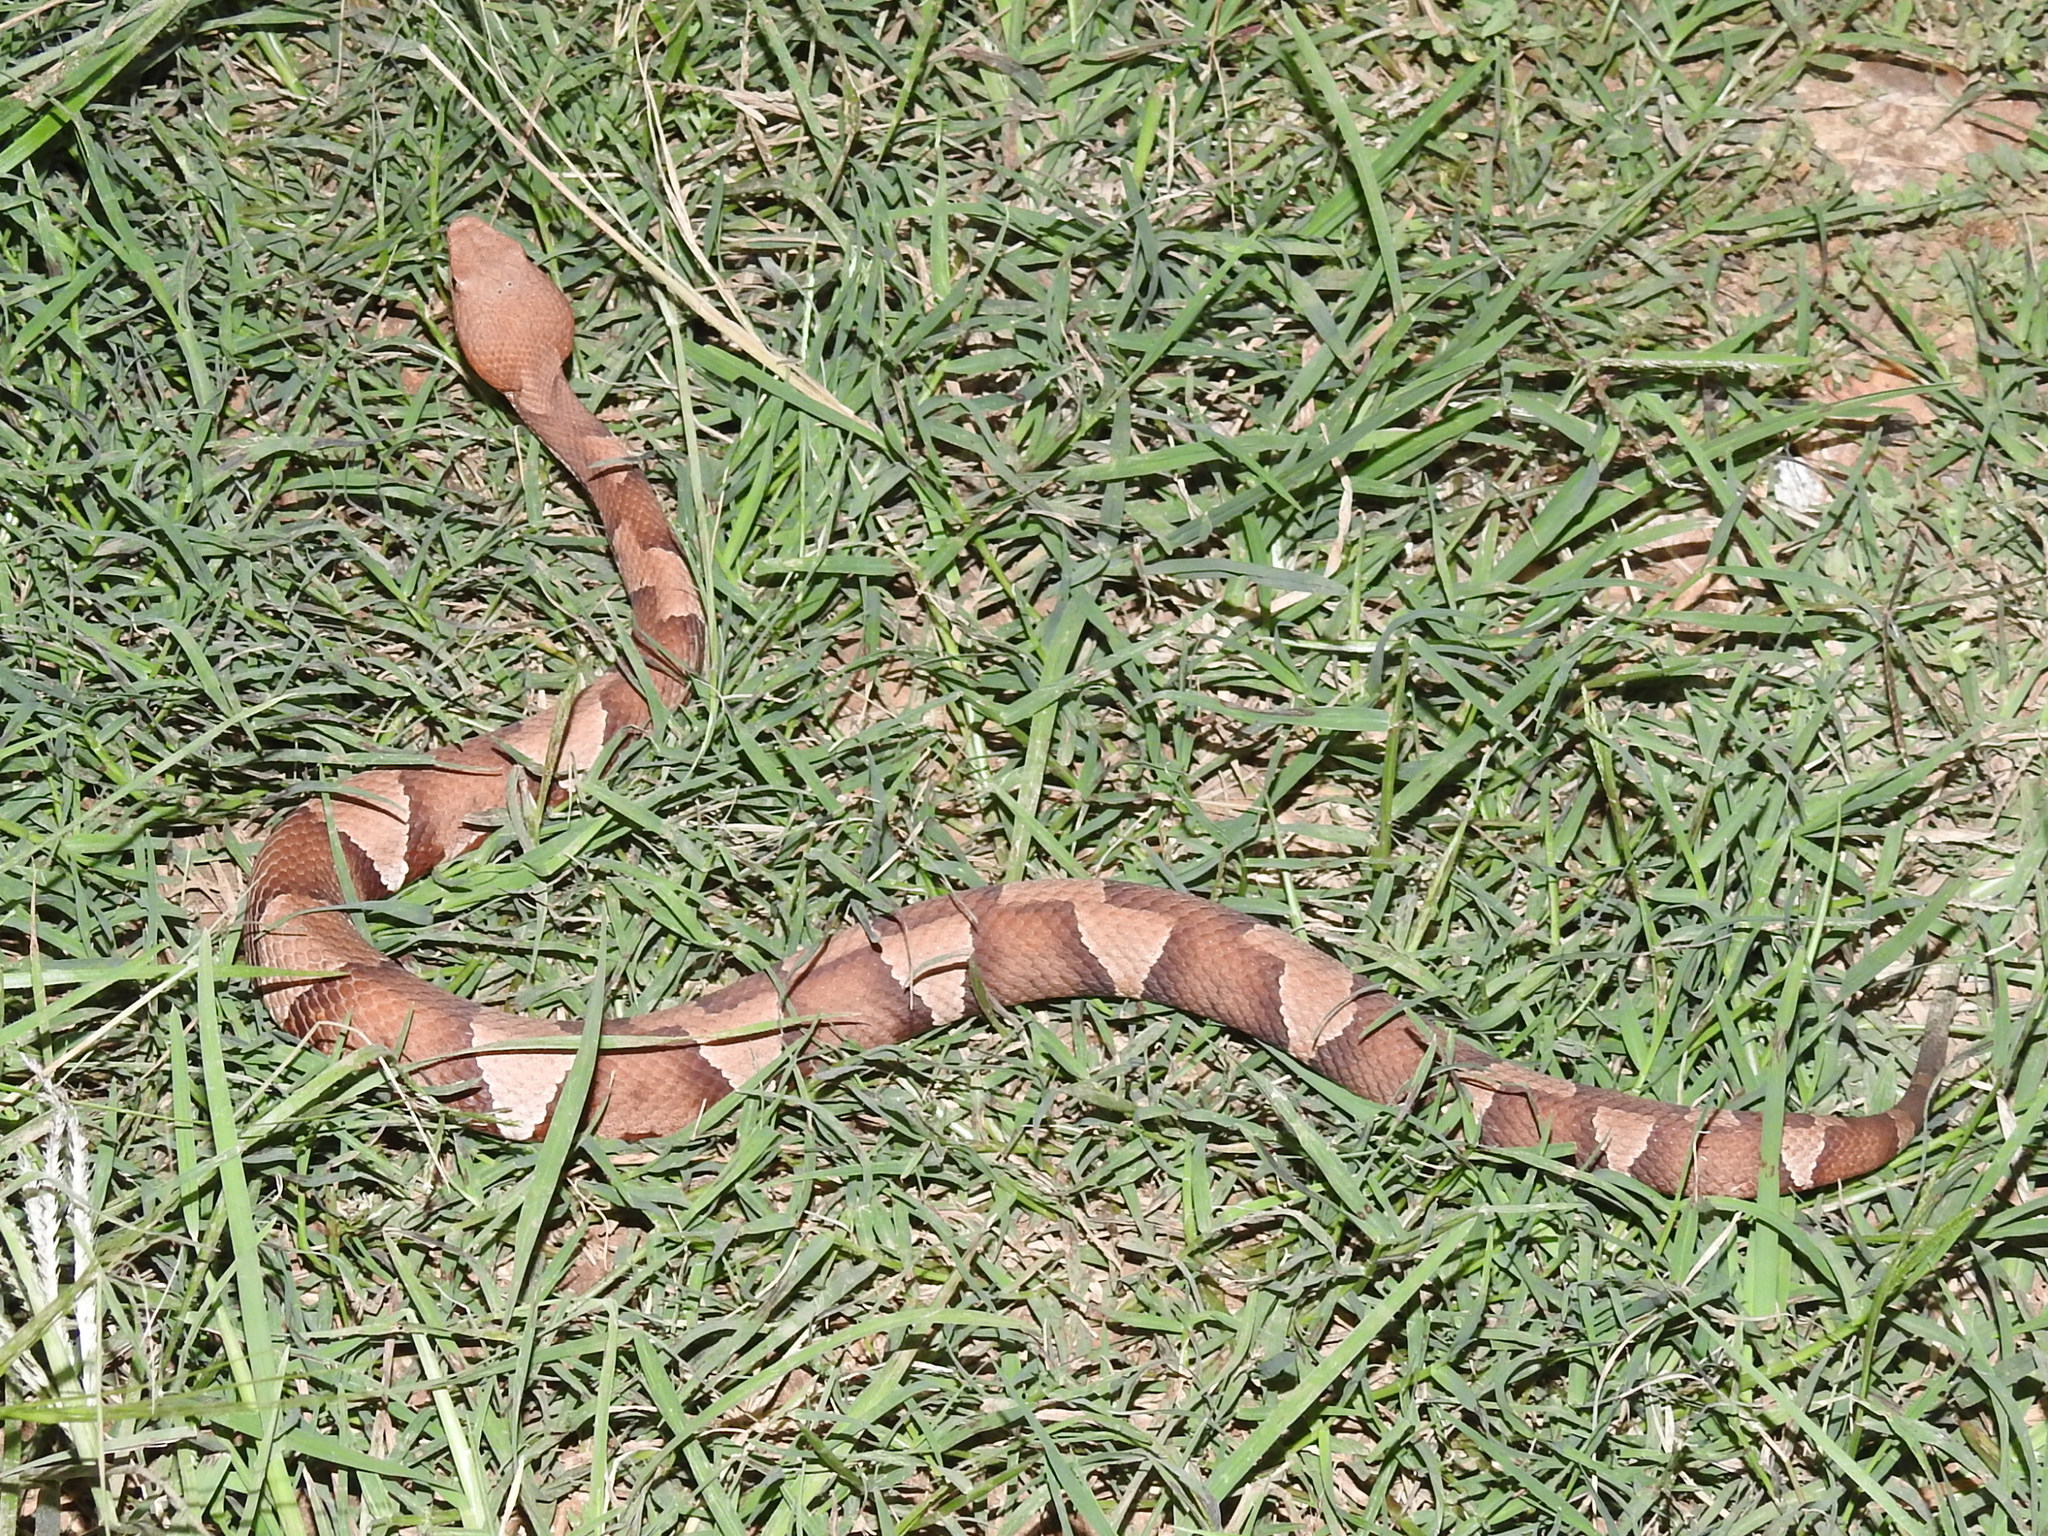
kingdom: Animalia
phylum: Chordata
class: Squamata
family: Viperidae
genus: Agkistrodon
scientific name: Agkistrodon laticinctus
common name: Broad-banded copperhead
